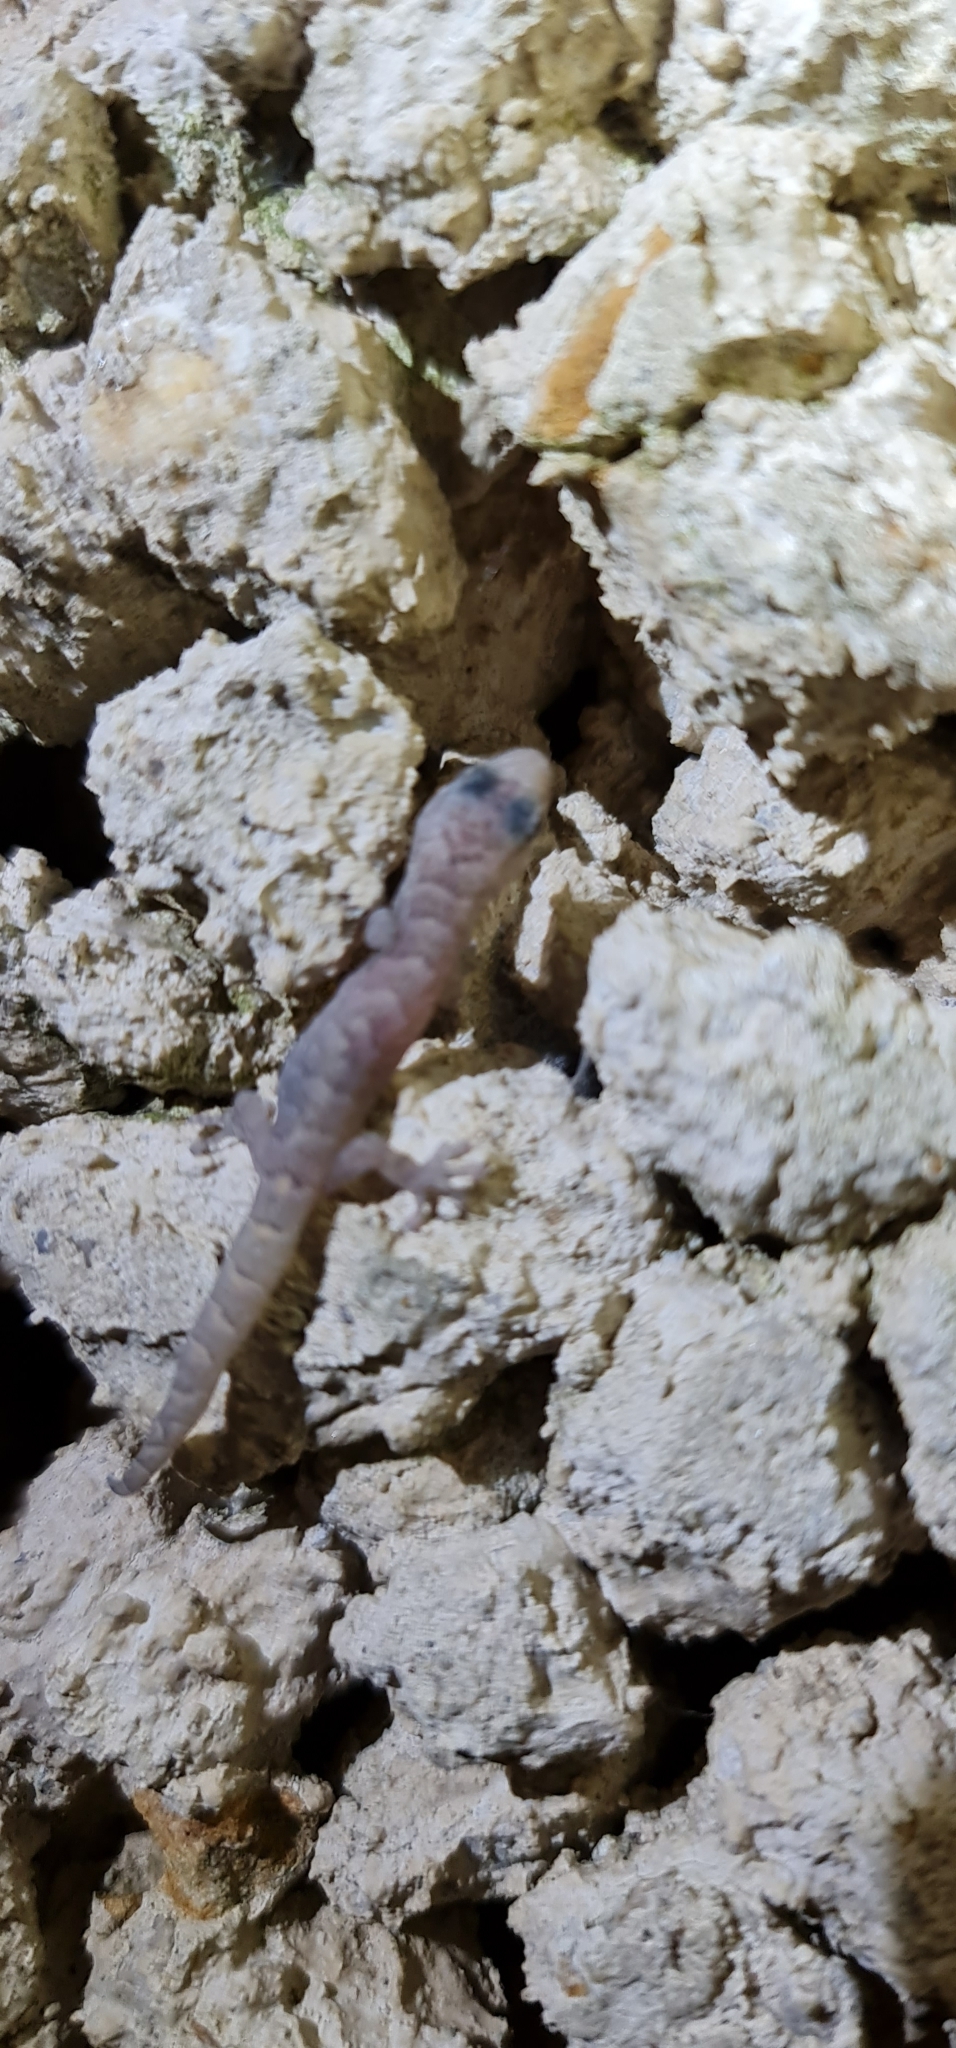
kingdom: Animalia
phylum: Chordata
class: Squamata
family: Gekkonidae
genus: Christinus
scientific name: Christinus marmoratus
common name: Marbled gecko
